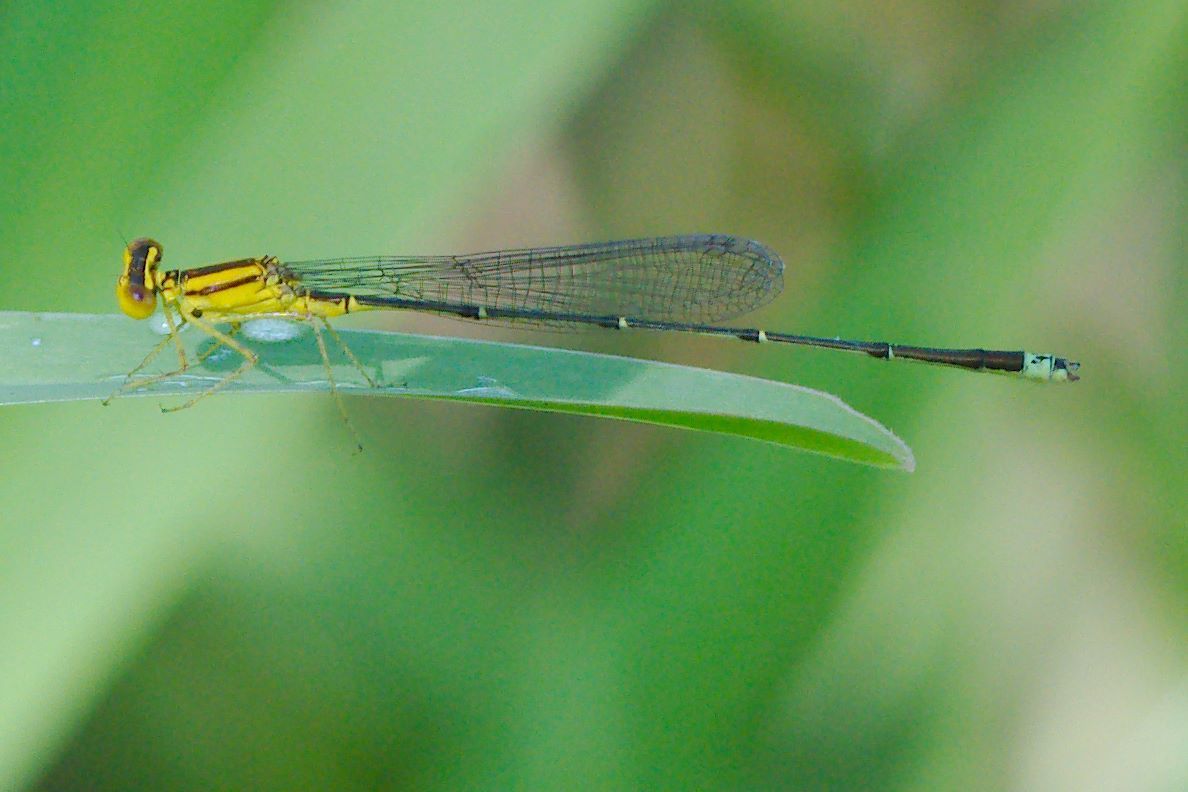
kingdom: Animalia
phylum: Arthropoda
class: Insecta
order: Odonata
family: Coenagrionidae
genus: Enallagma
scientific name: Enallagma vesperum
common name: Vesper bluet
